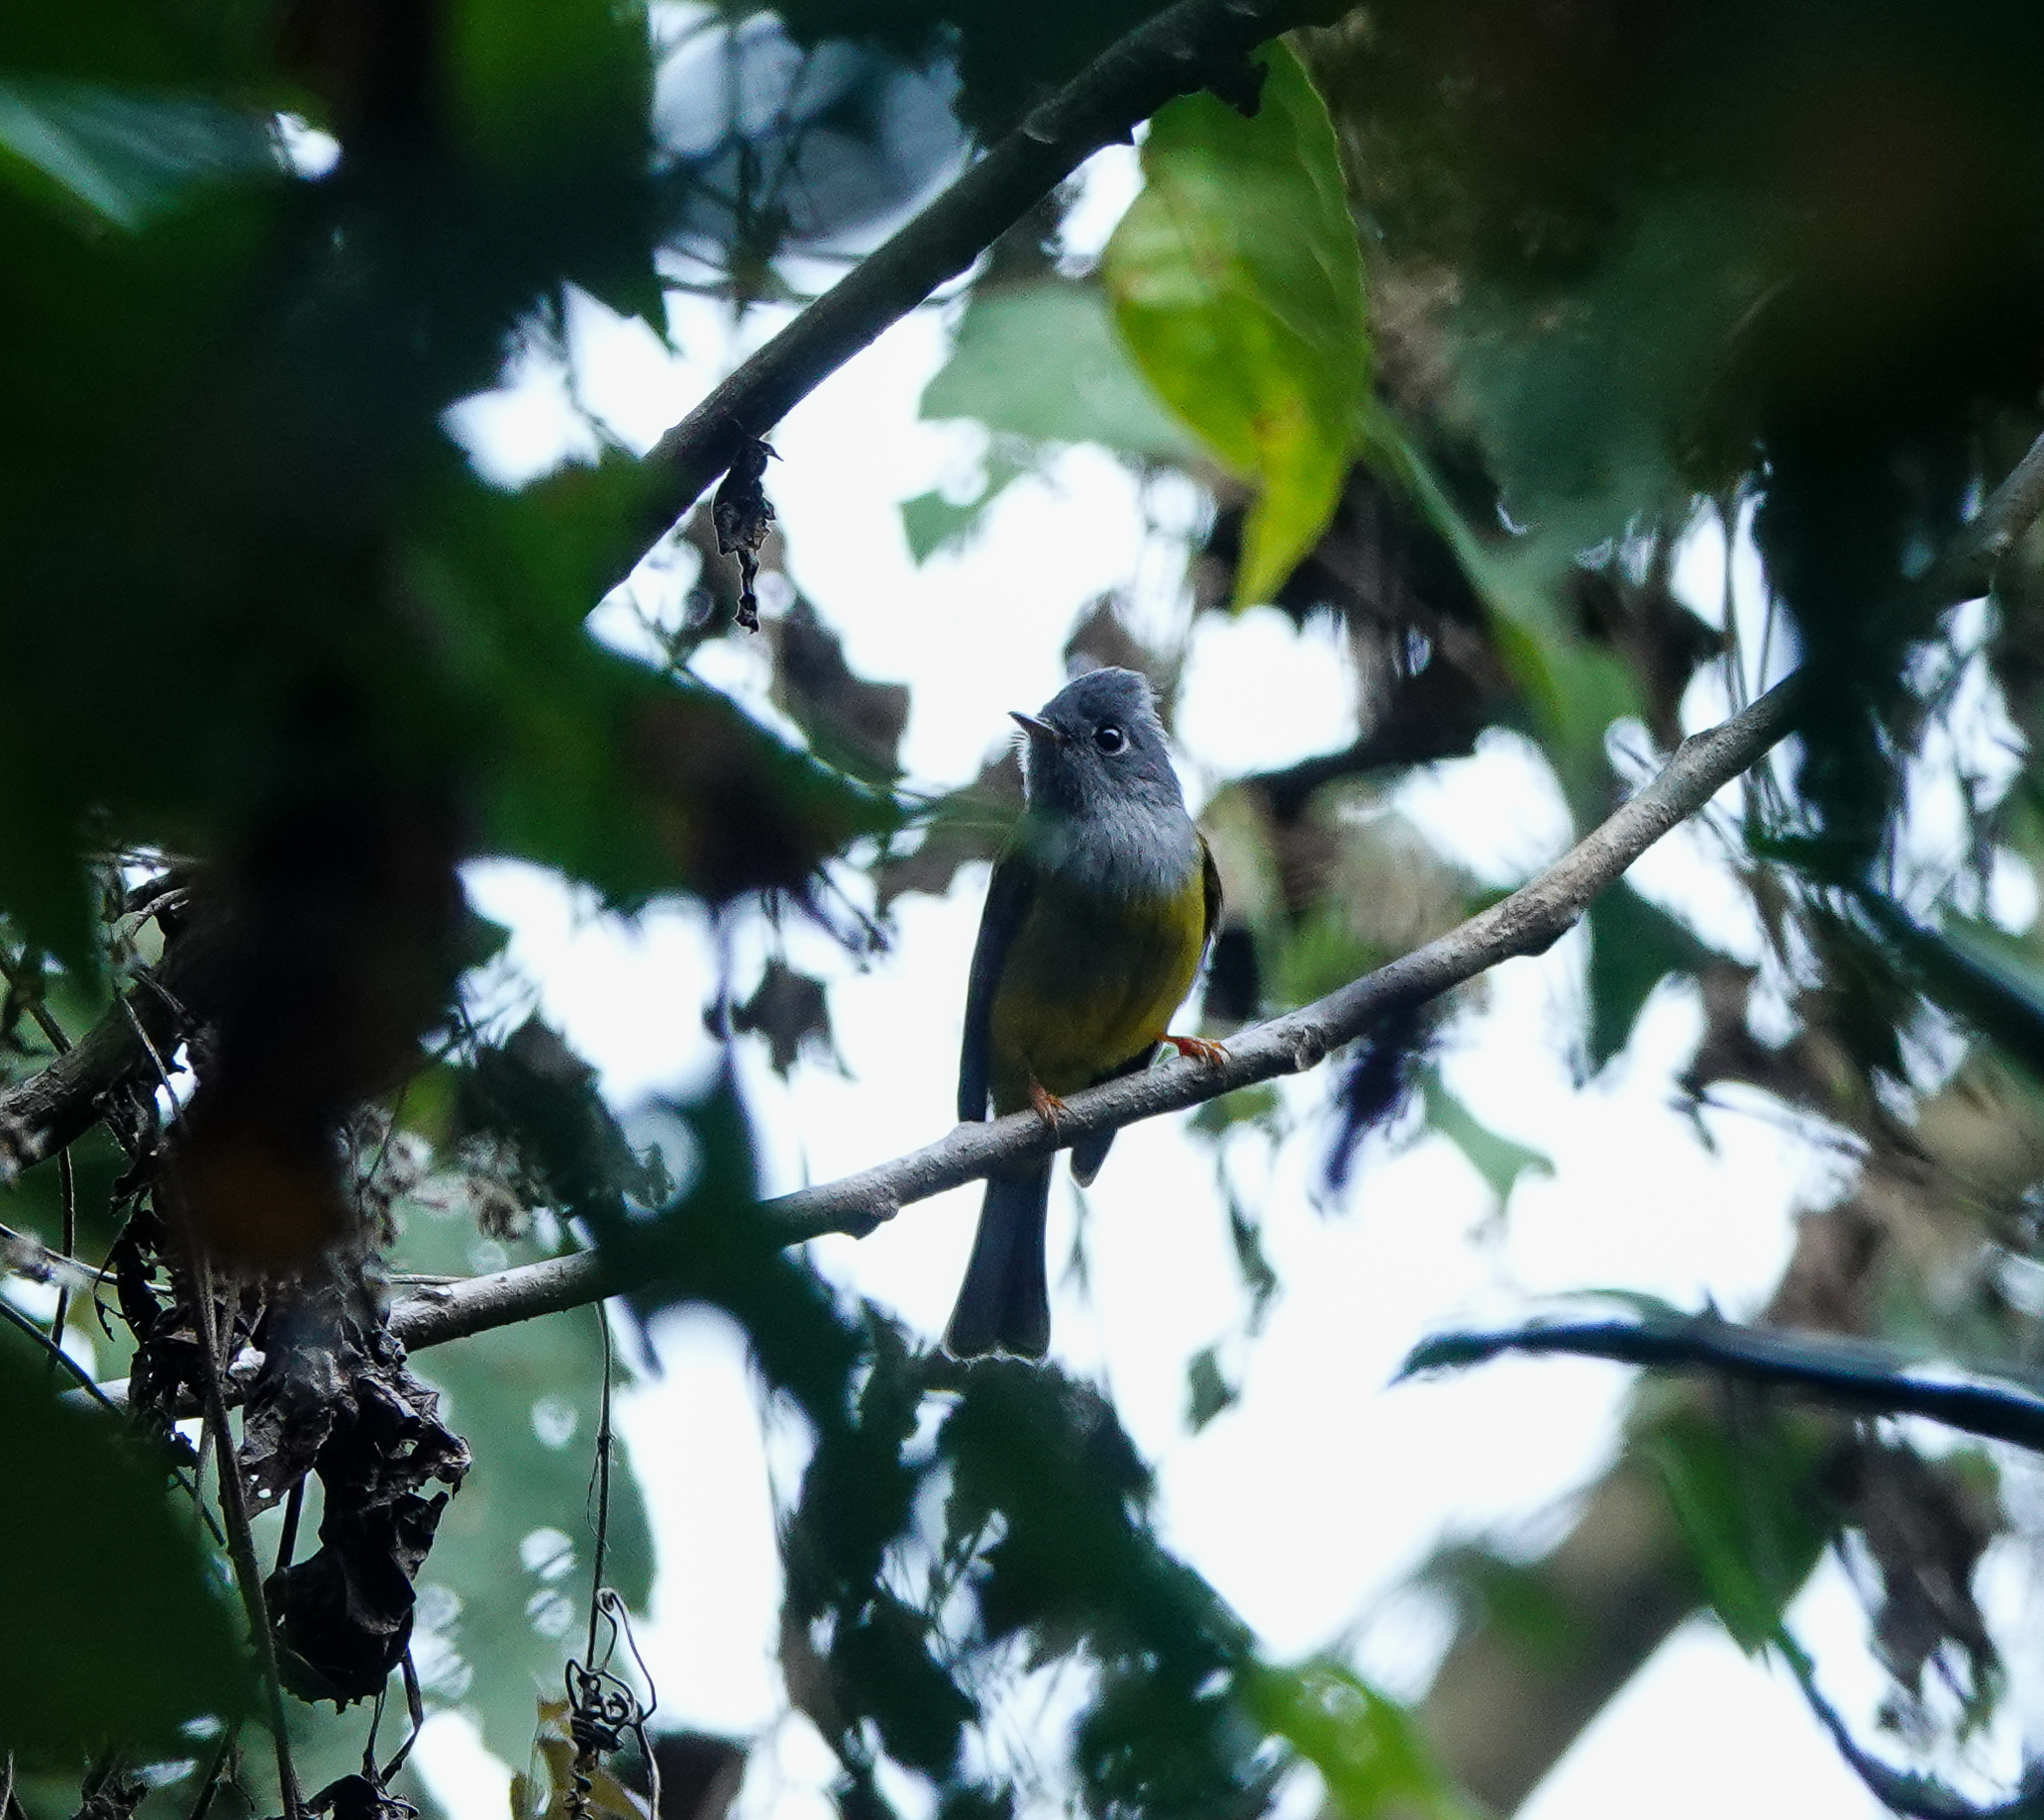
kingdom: Animalia
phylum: Chordata
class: Aves
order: Passeriformes
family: Stenostiridae
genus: Culicicapa
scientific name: Culicicapa ceylonensis
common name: Grey-headed canary-flycatcher
